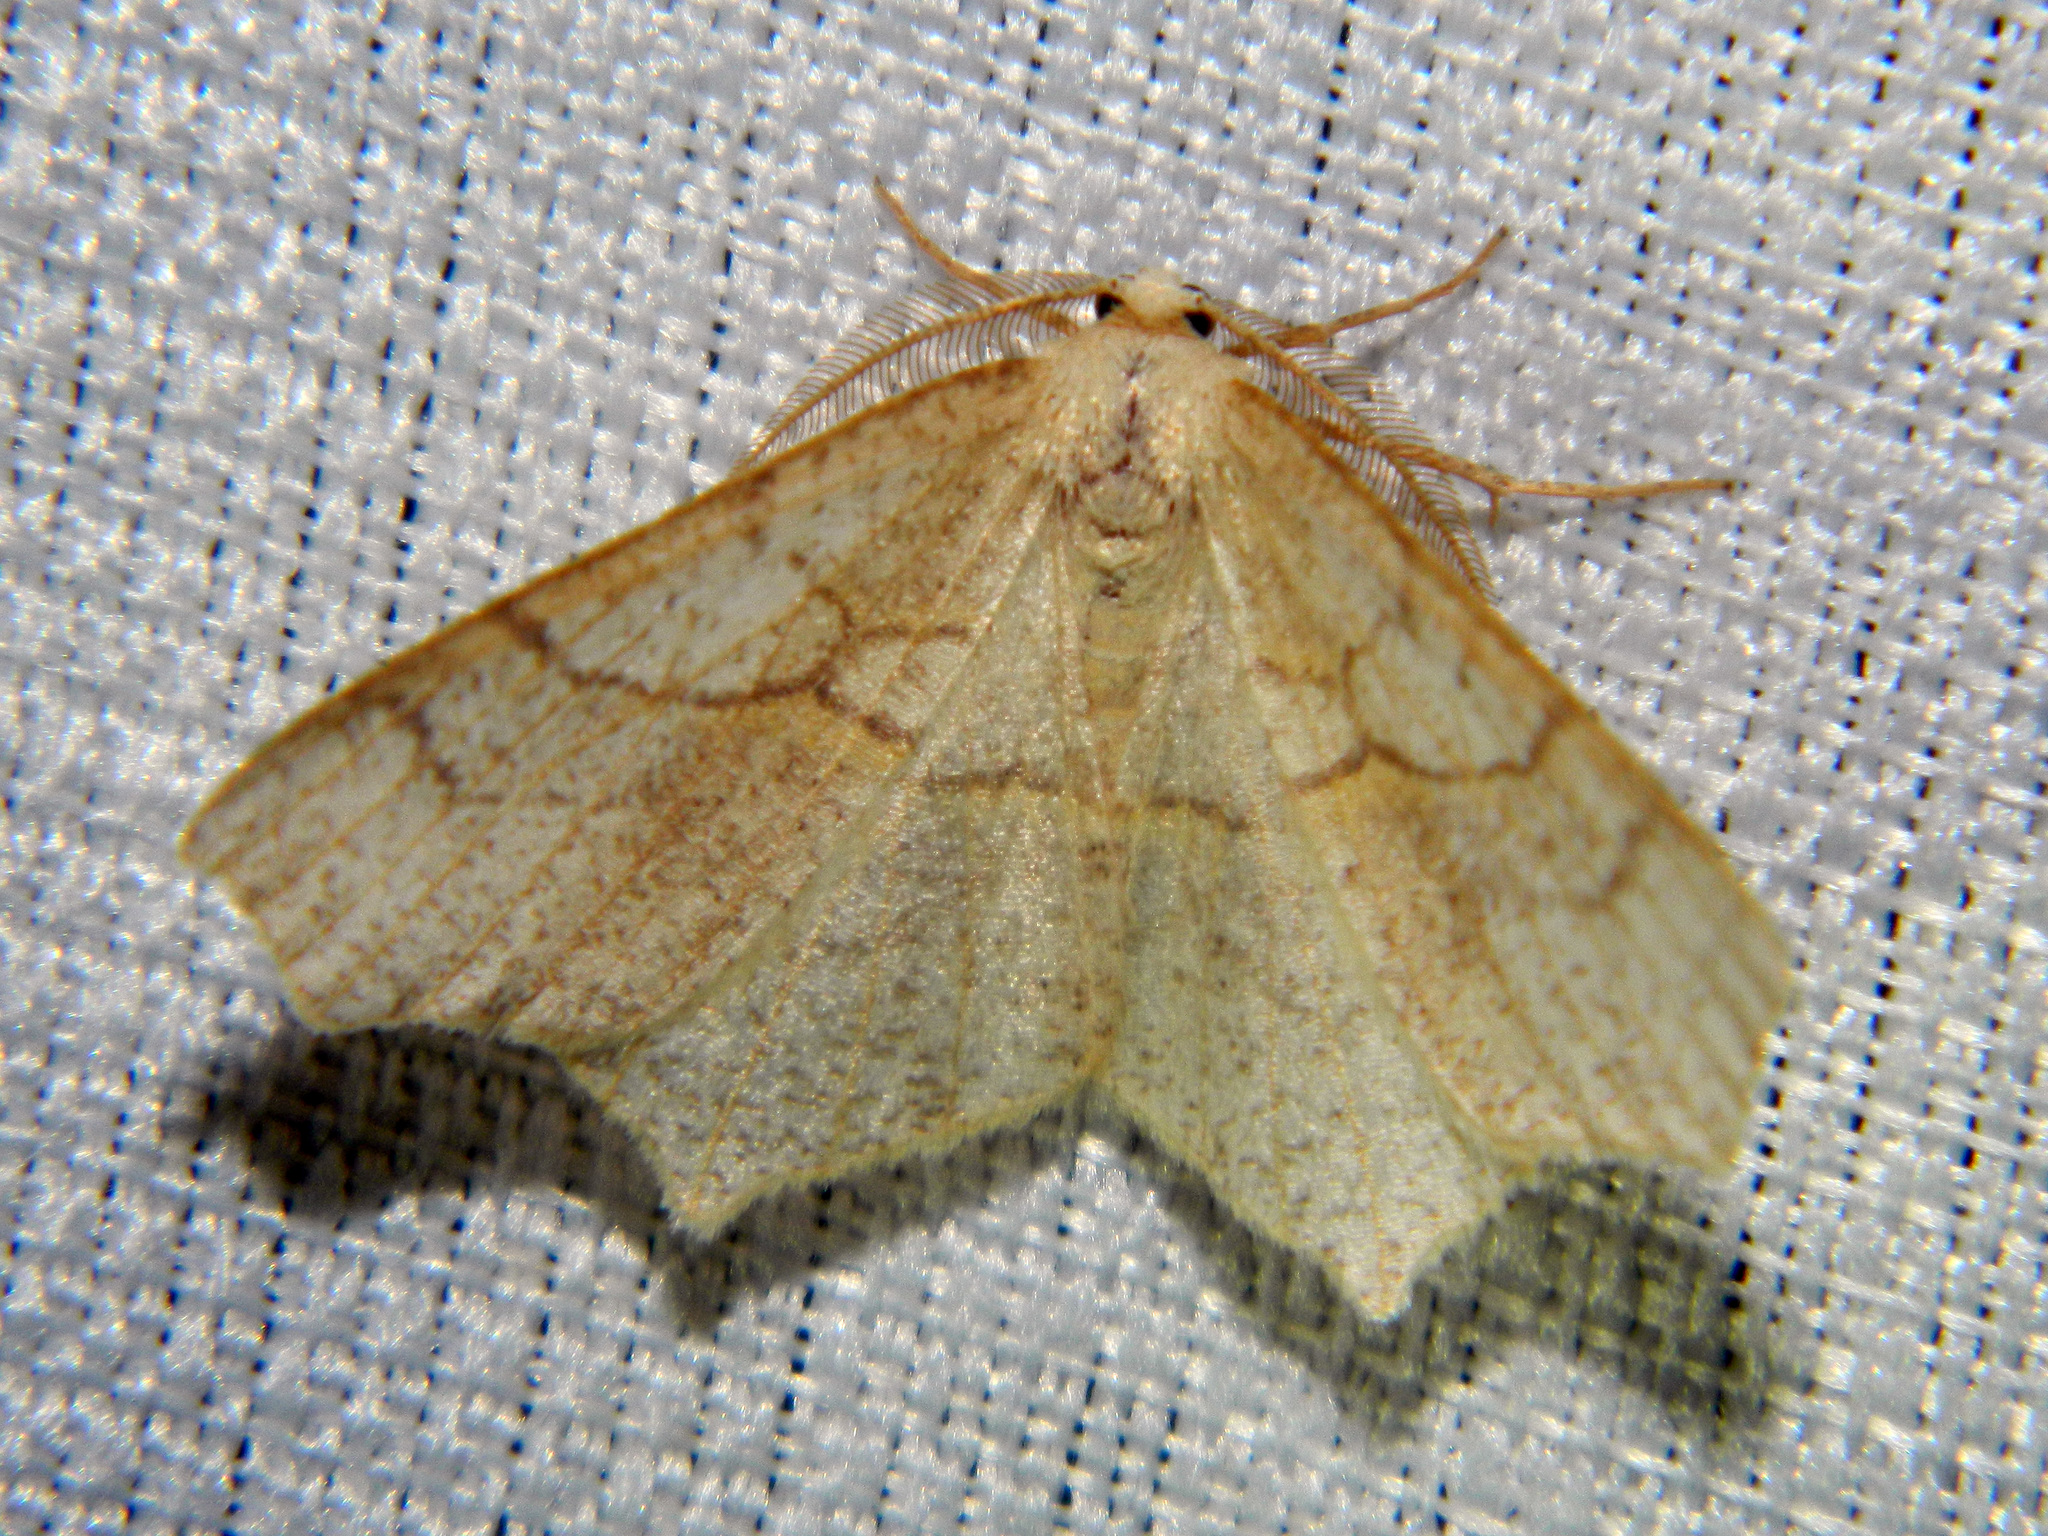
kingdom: Animalia
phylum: Arthropoda
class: Insecta
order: Lepidoptera
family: Geometridae
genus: Besma
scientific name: Besma quercivoraria
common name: Oak besma
